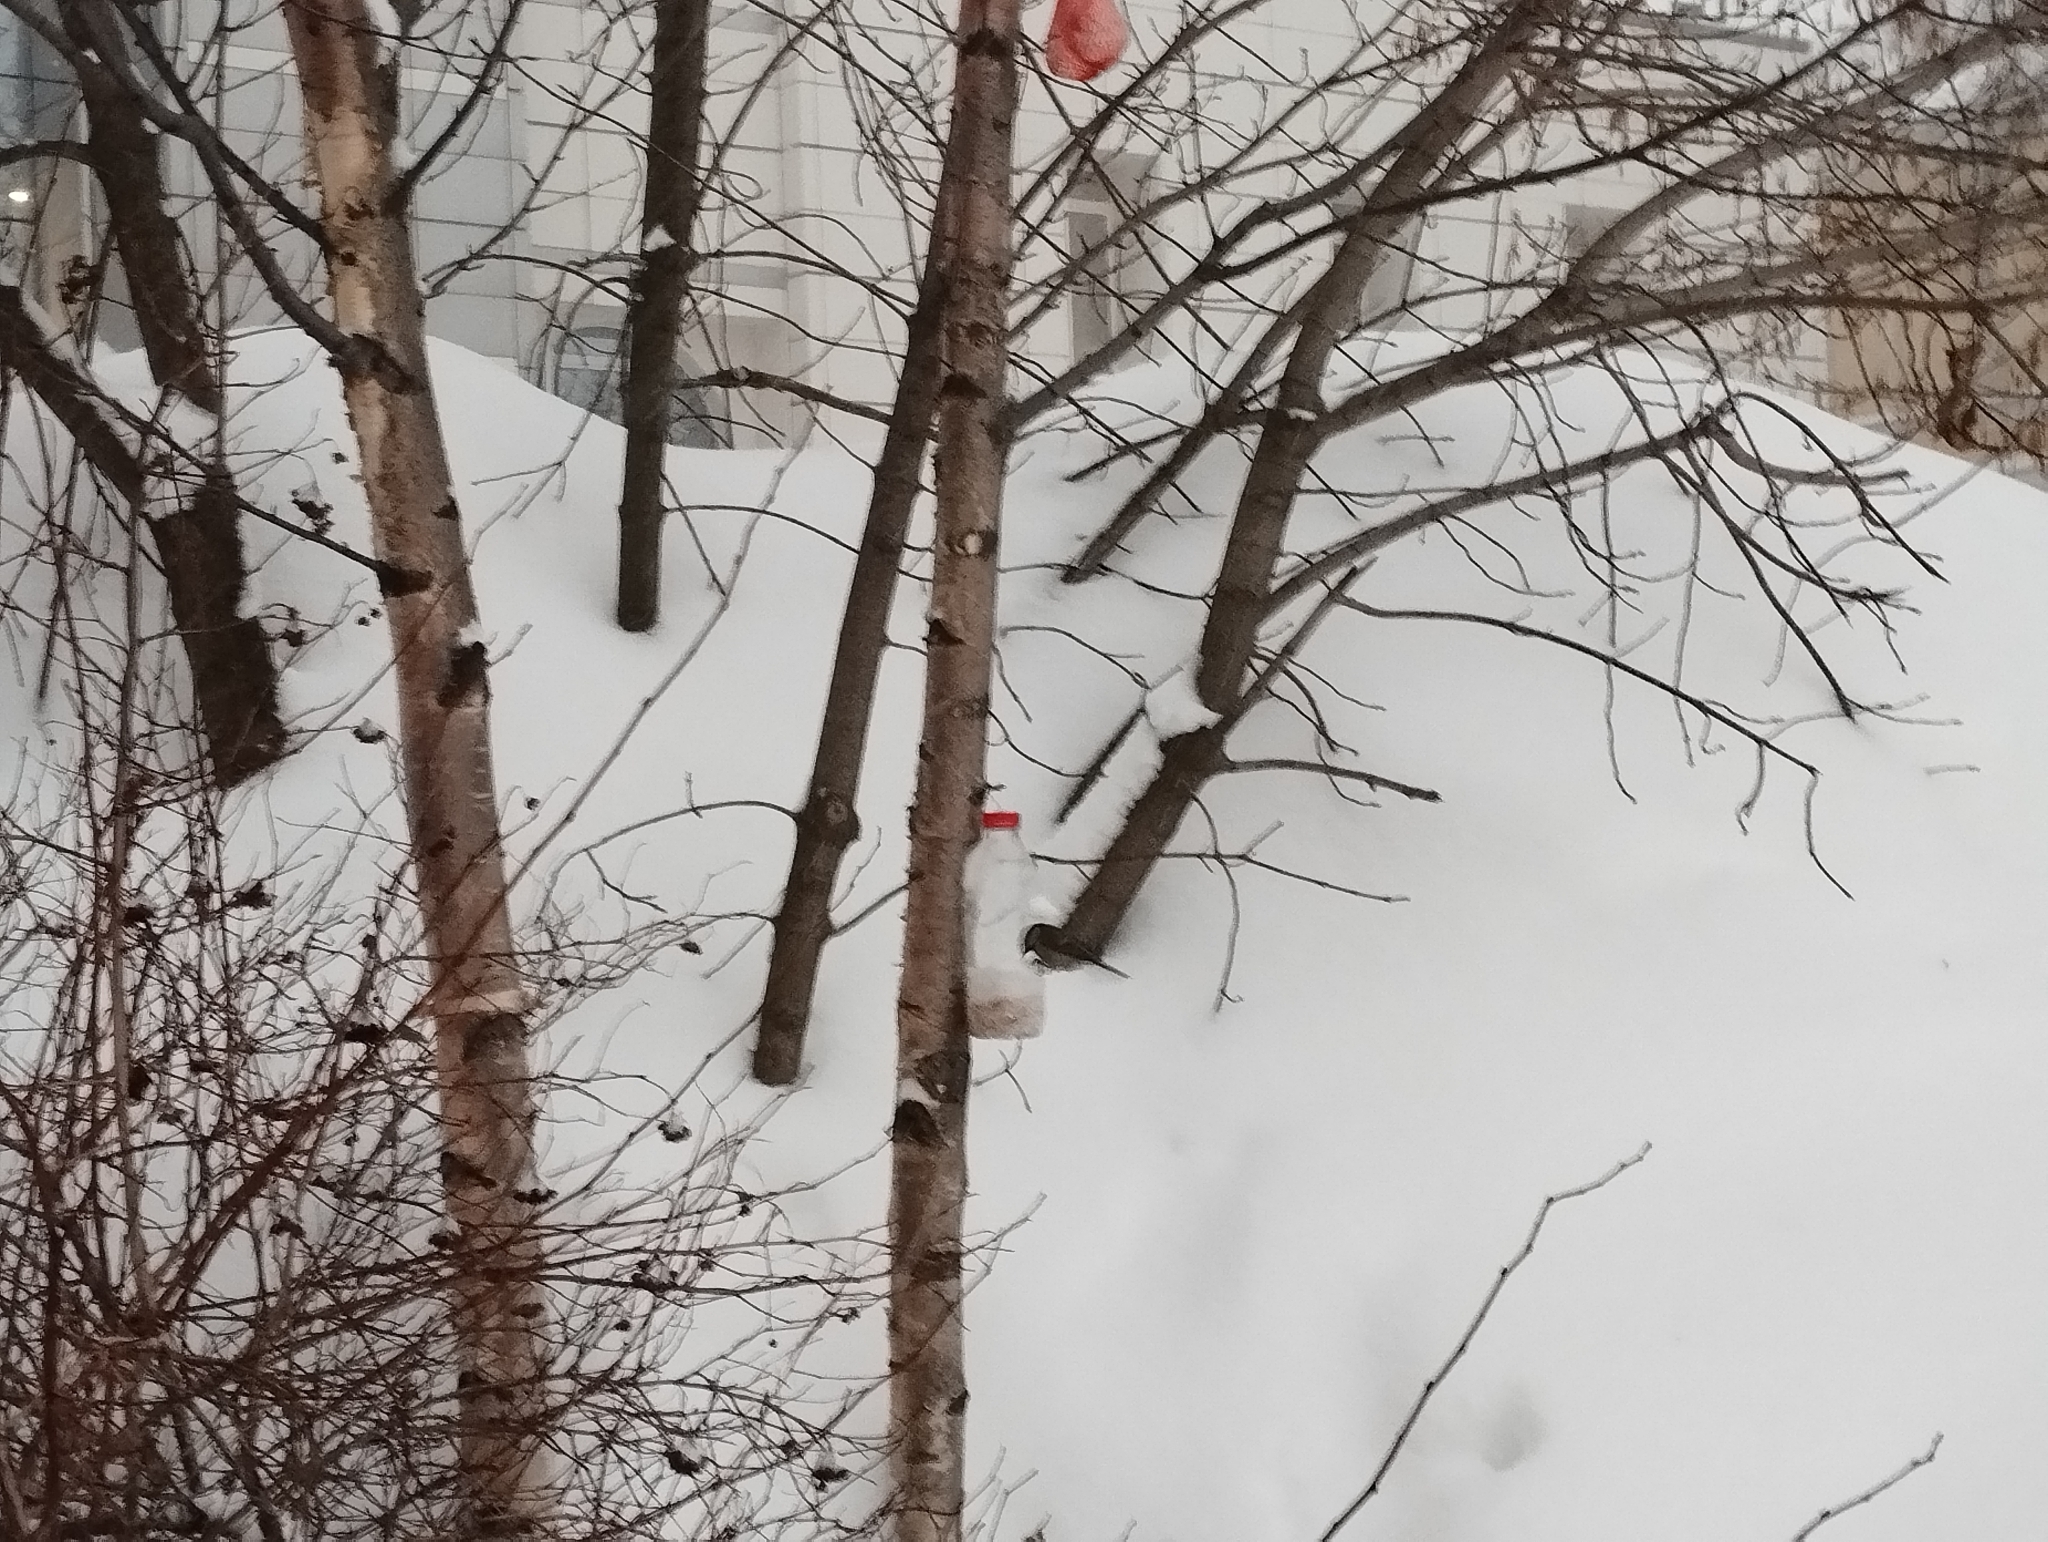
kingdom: Animalia
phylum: Chordata
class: Aves
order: Passeriformes
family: Paridae
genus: Parus
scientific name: Parus major
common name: Great tit
